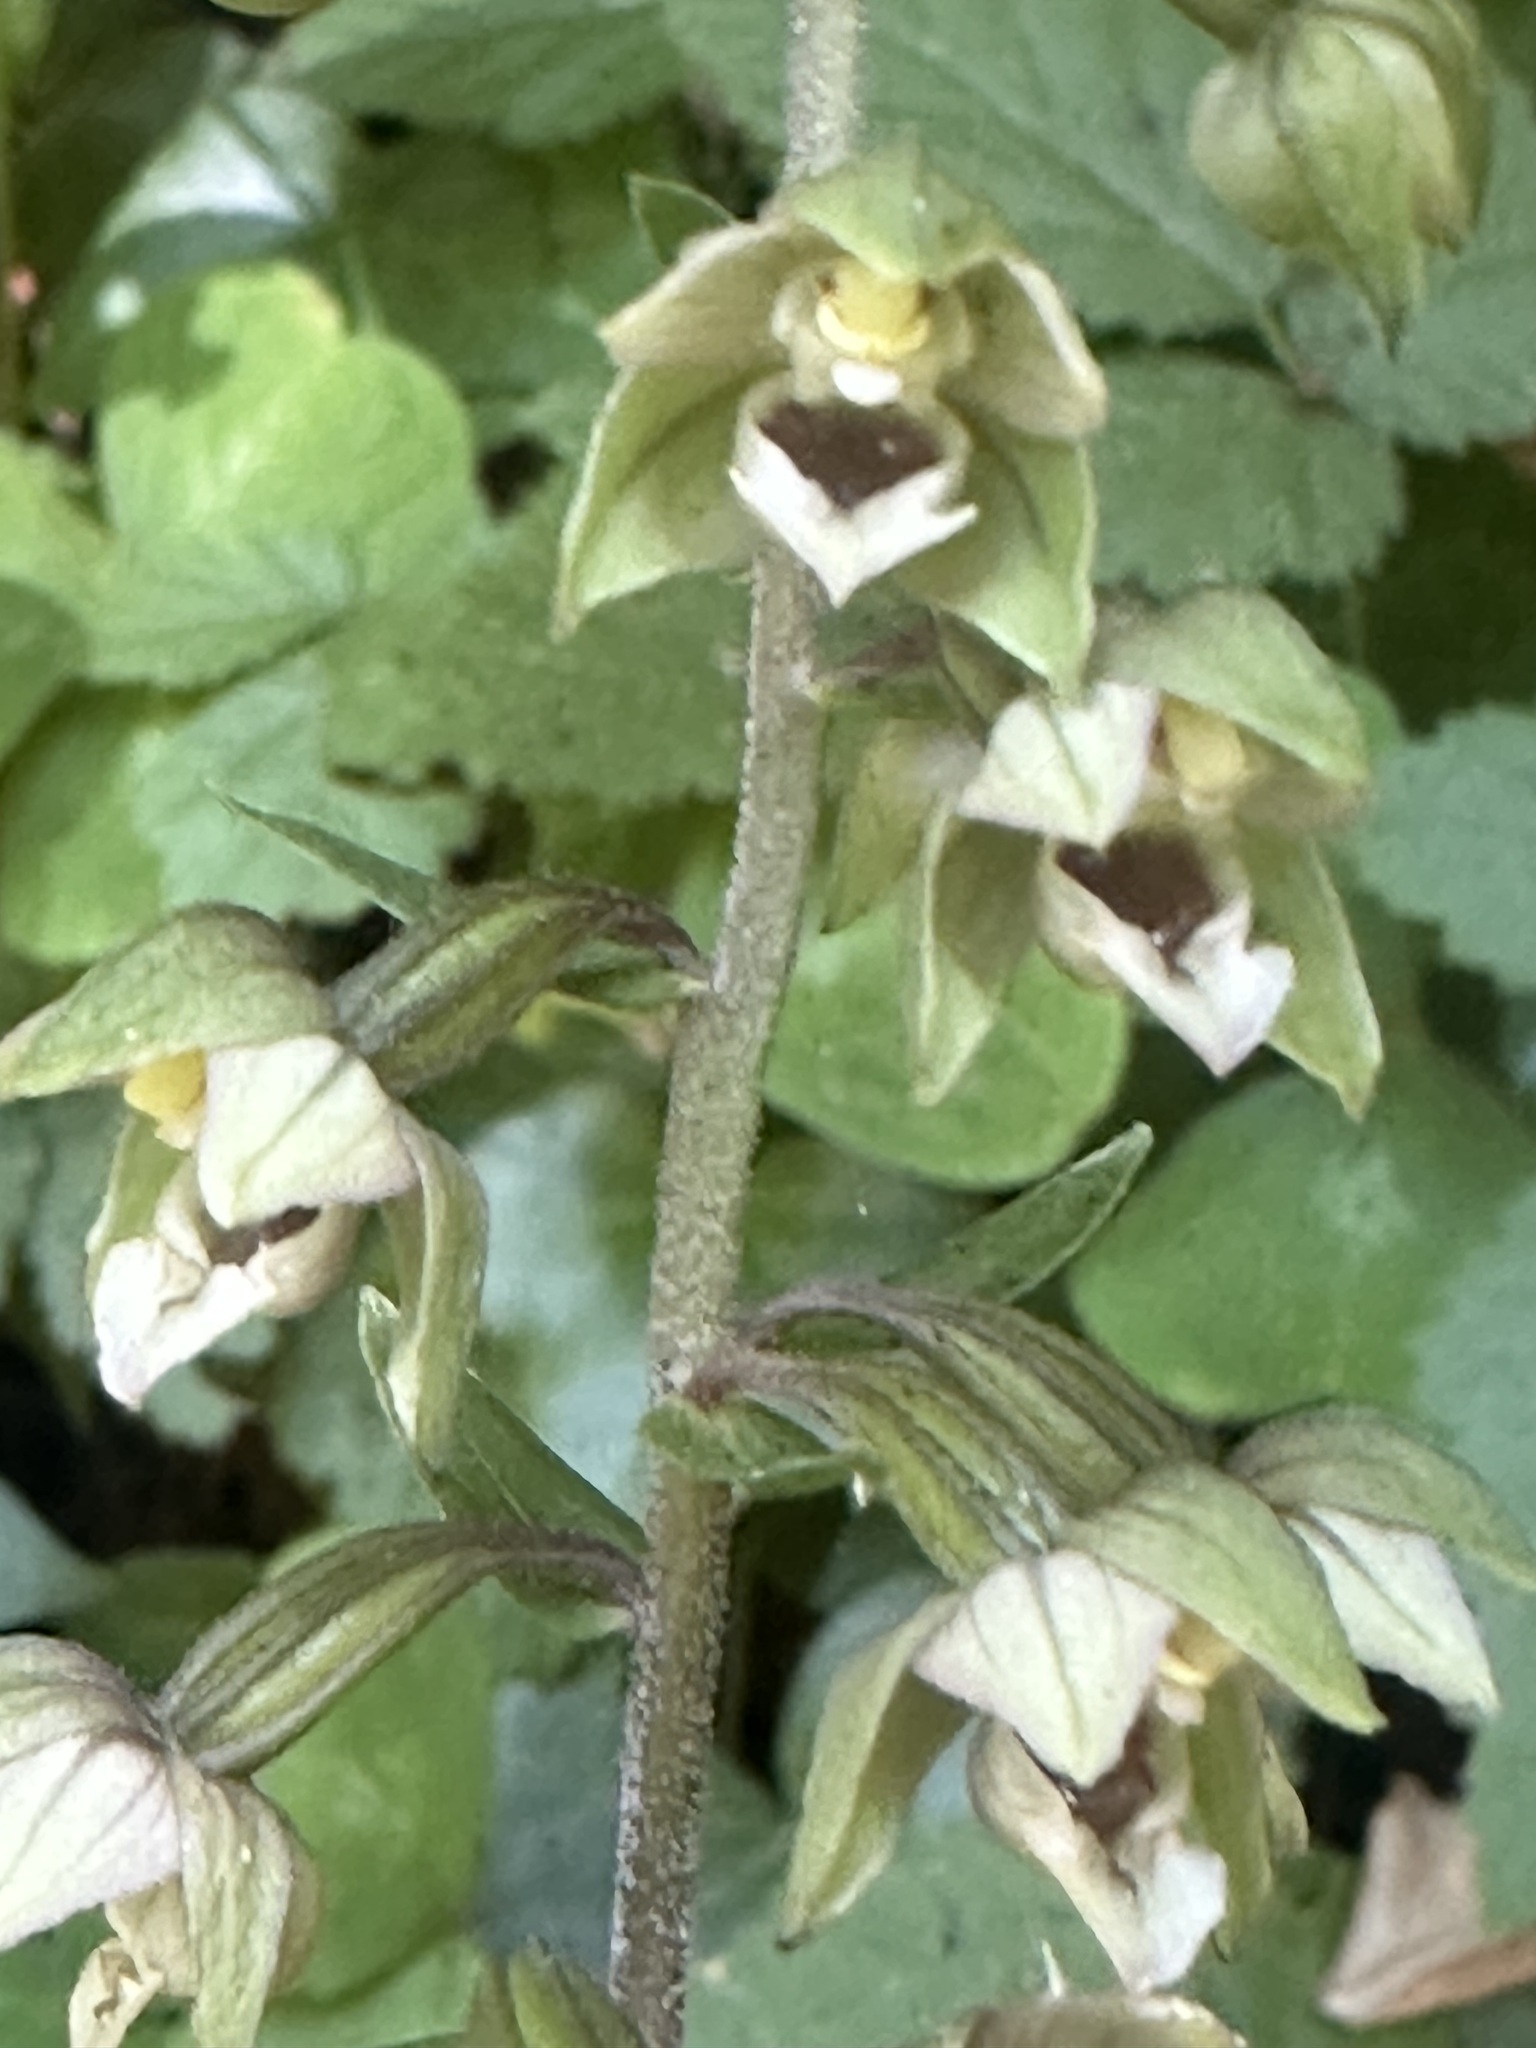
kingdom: Plantae
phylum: Tracheophyta
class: Liliopsida
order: Asparagales
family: Orchidaceae
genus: Epipactis
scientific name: Epipactis helleborine
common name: Broad-leaved helleborine
